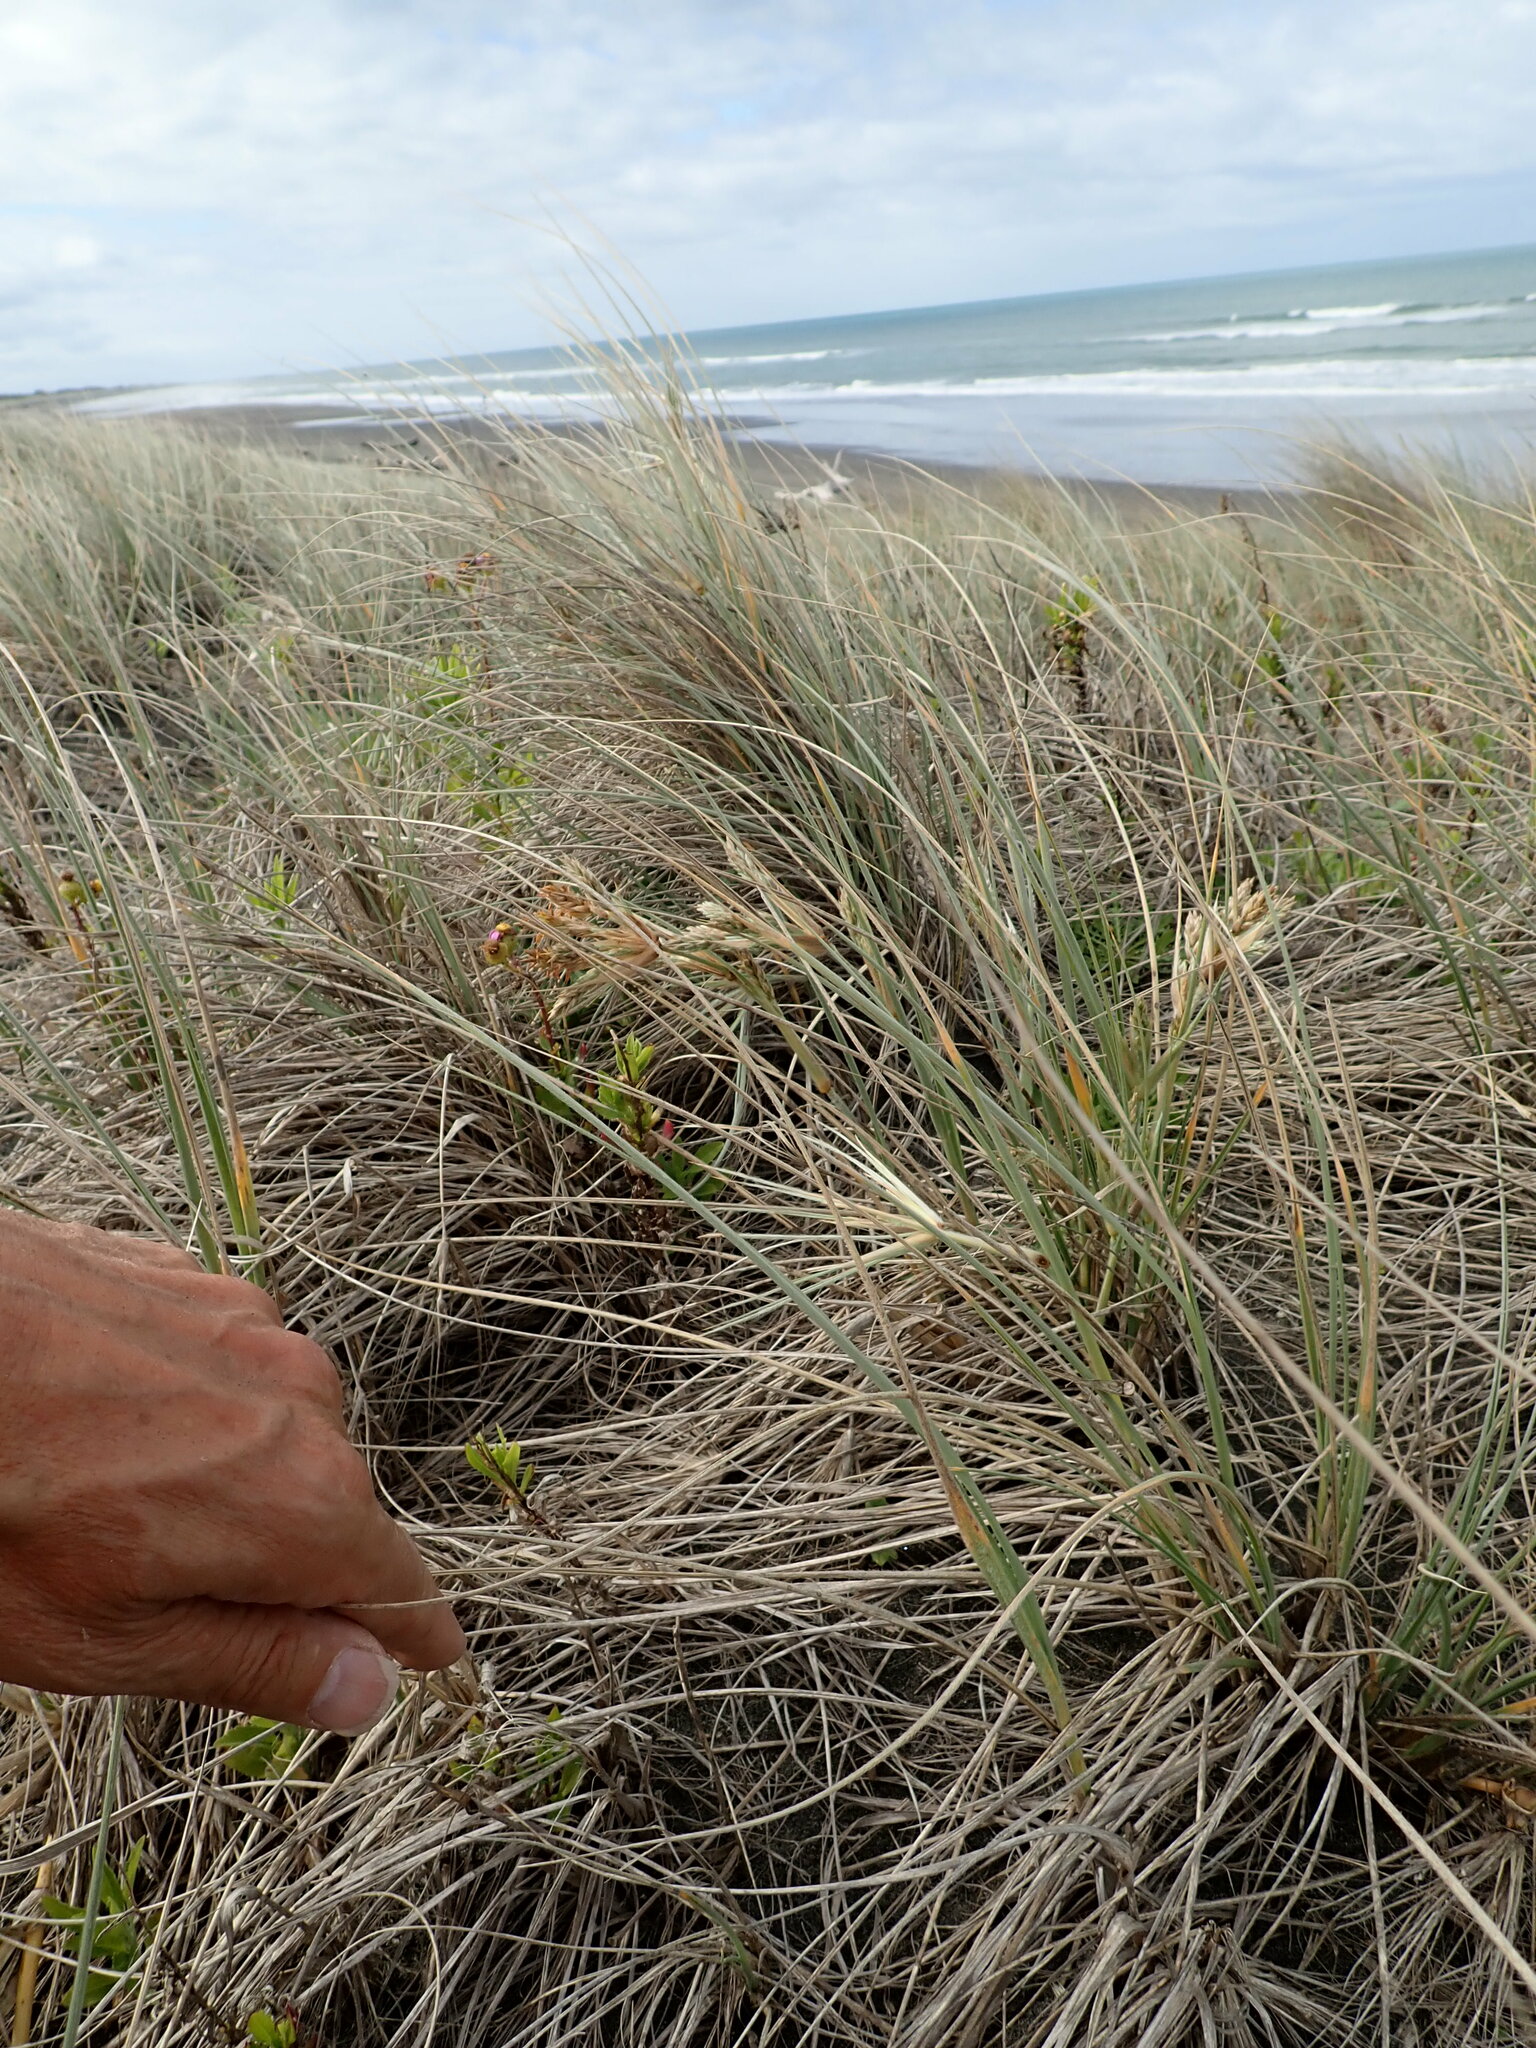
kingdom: Plantae
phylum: Tracheophyta
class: Liliopsida
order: Poales
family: Poaceae
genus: Spinifex
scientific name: Spinifex sericeus
